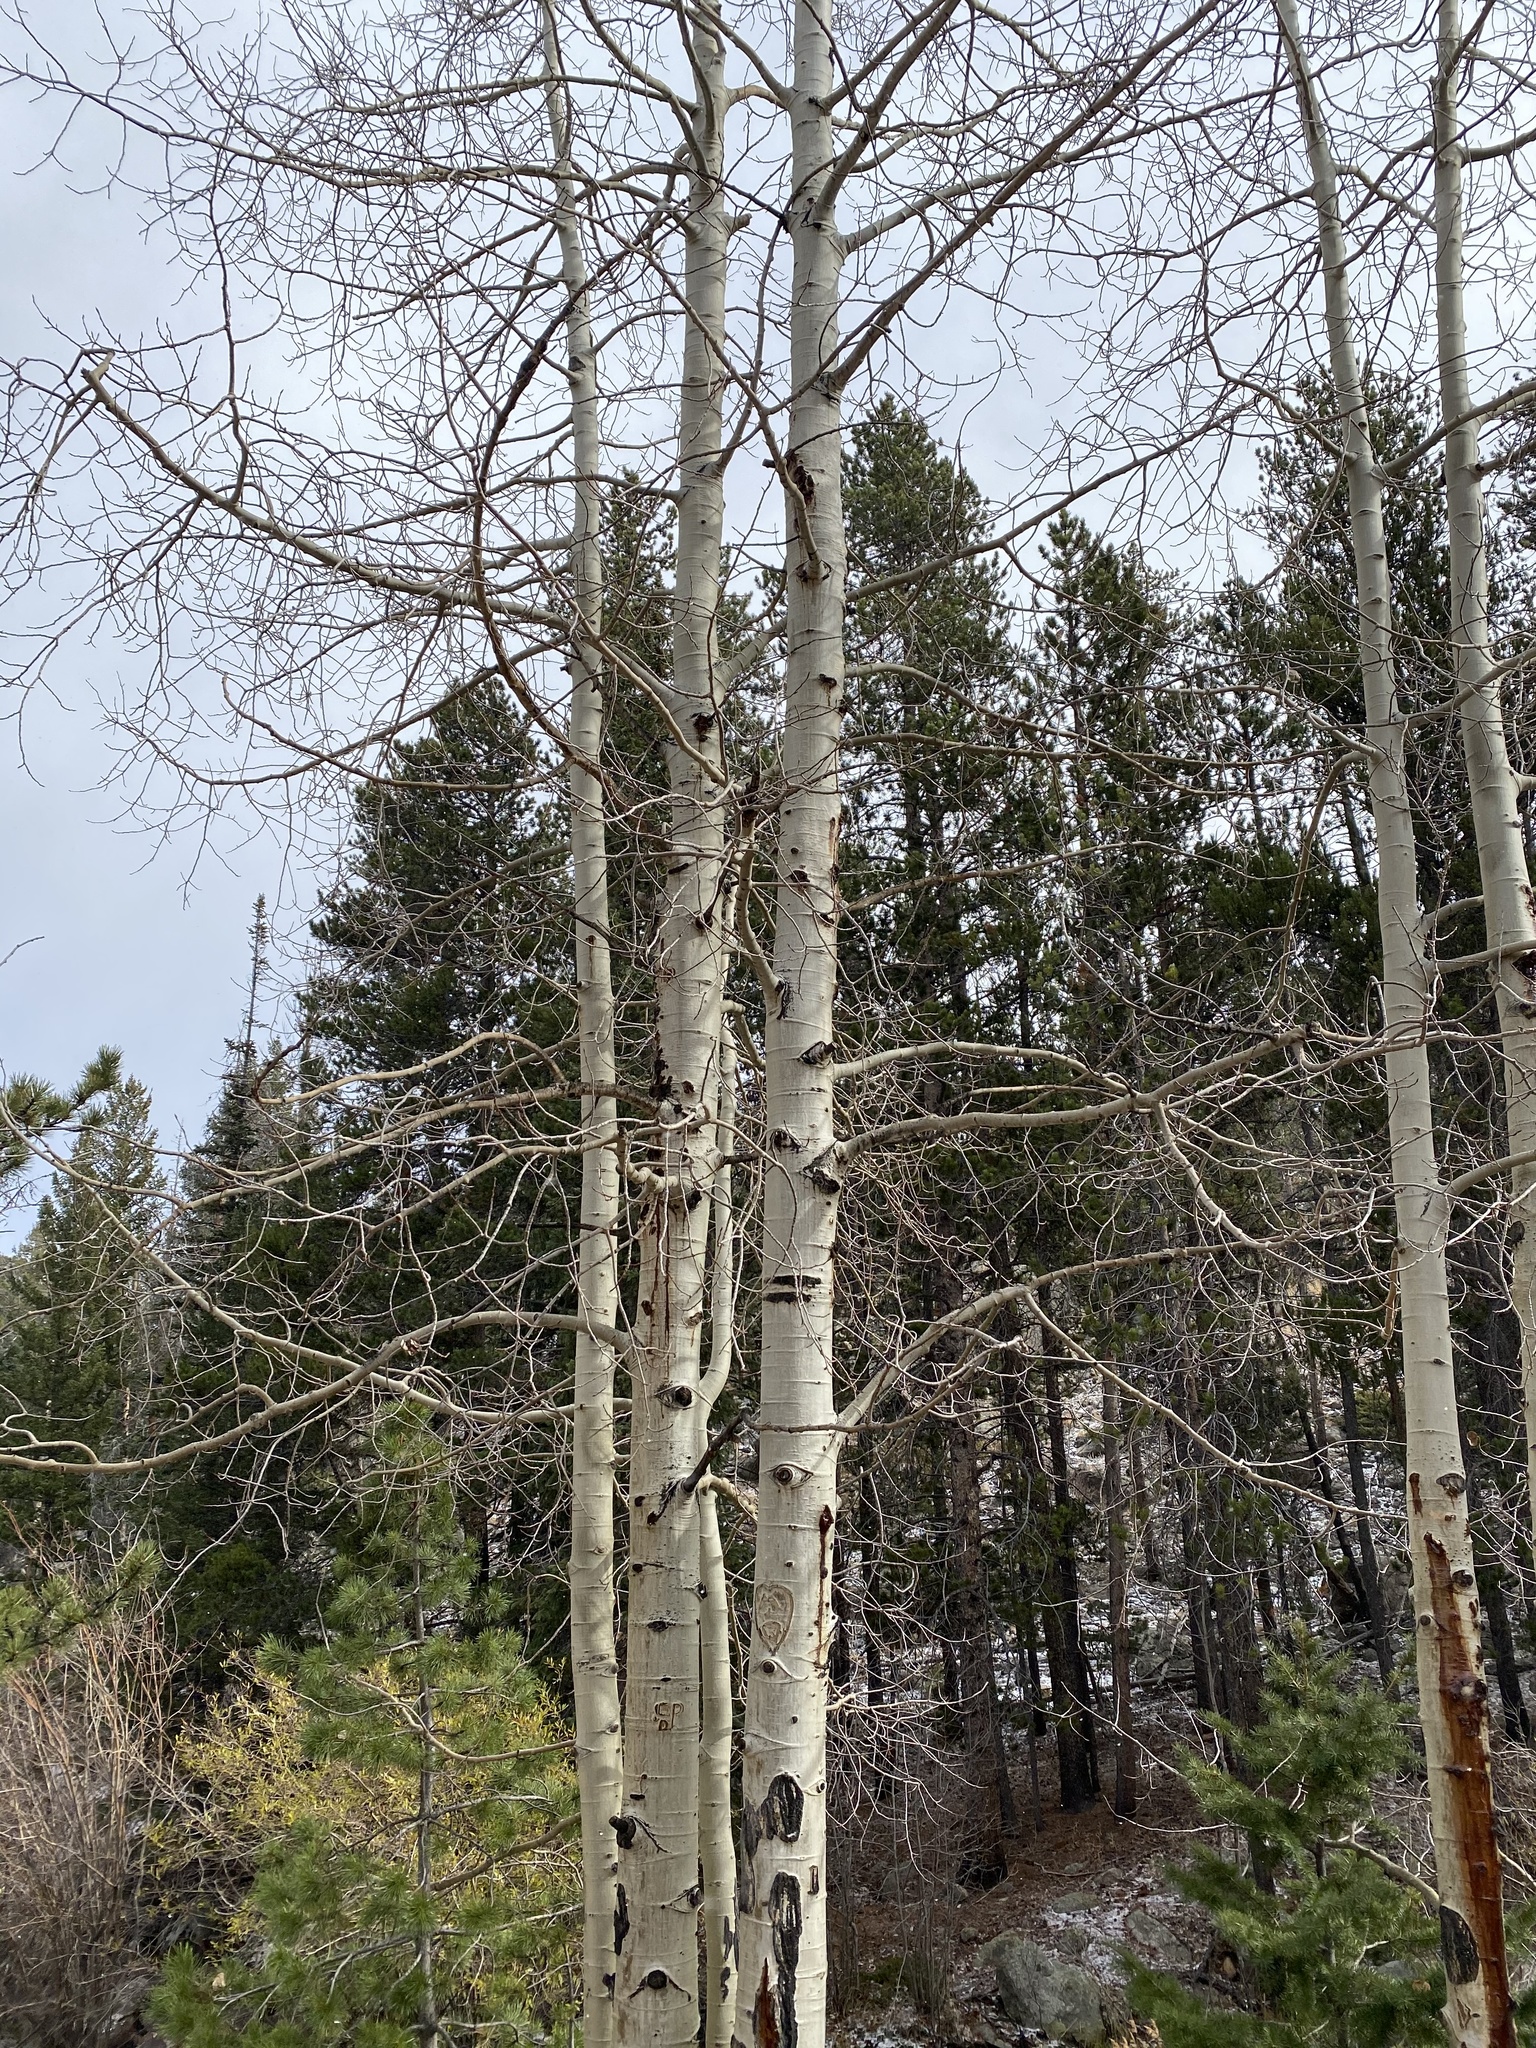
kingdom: Plantae
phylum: Tracheophyta
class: Magnoliopsida
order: Malpighiales
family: Salicaceae
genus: Populus
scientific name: Populus tremuloides
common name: Quaking aspen
